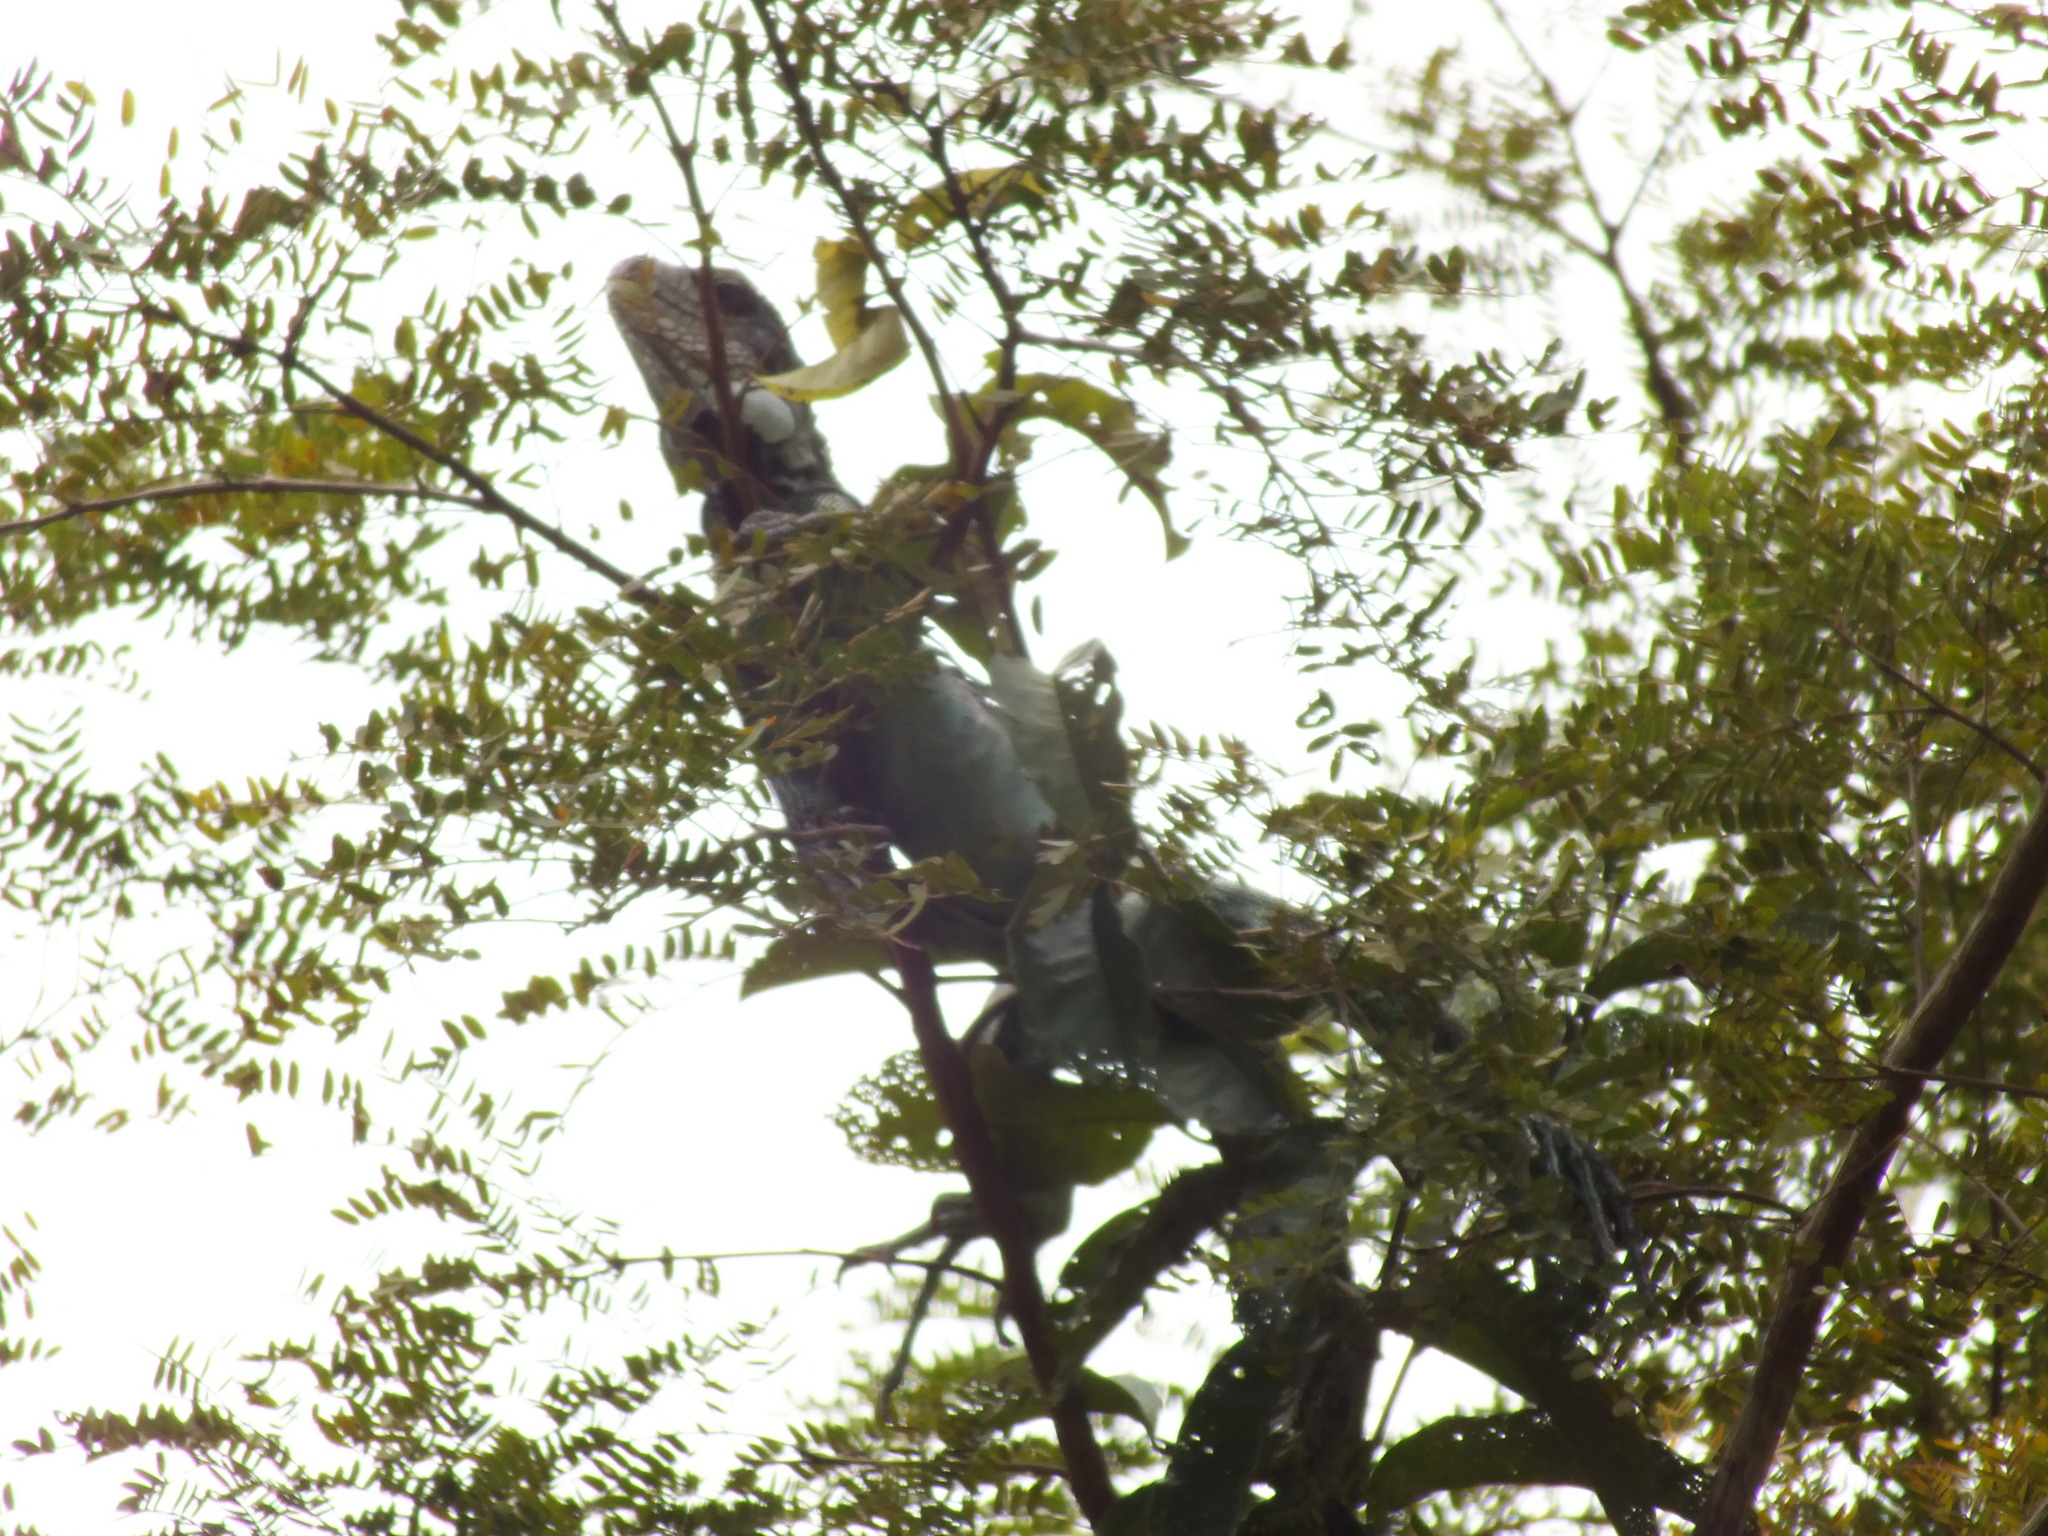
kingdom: Animalia
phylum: Chordata
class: Squamata
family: Iguanidae
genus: Iguana
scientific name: Iguana iguana
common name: Green iguana
